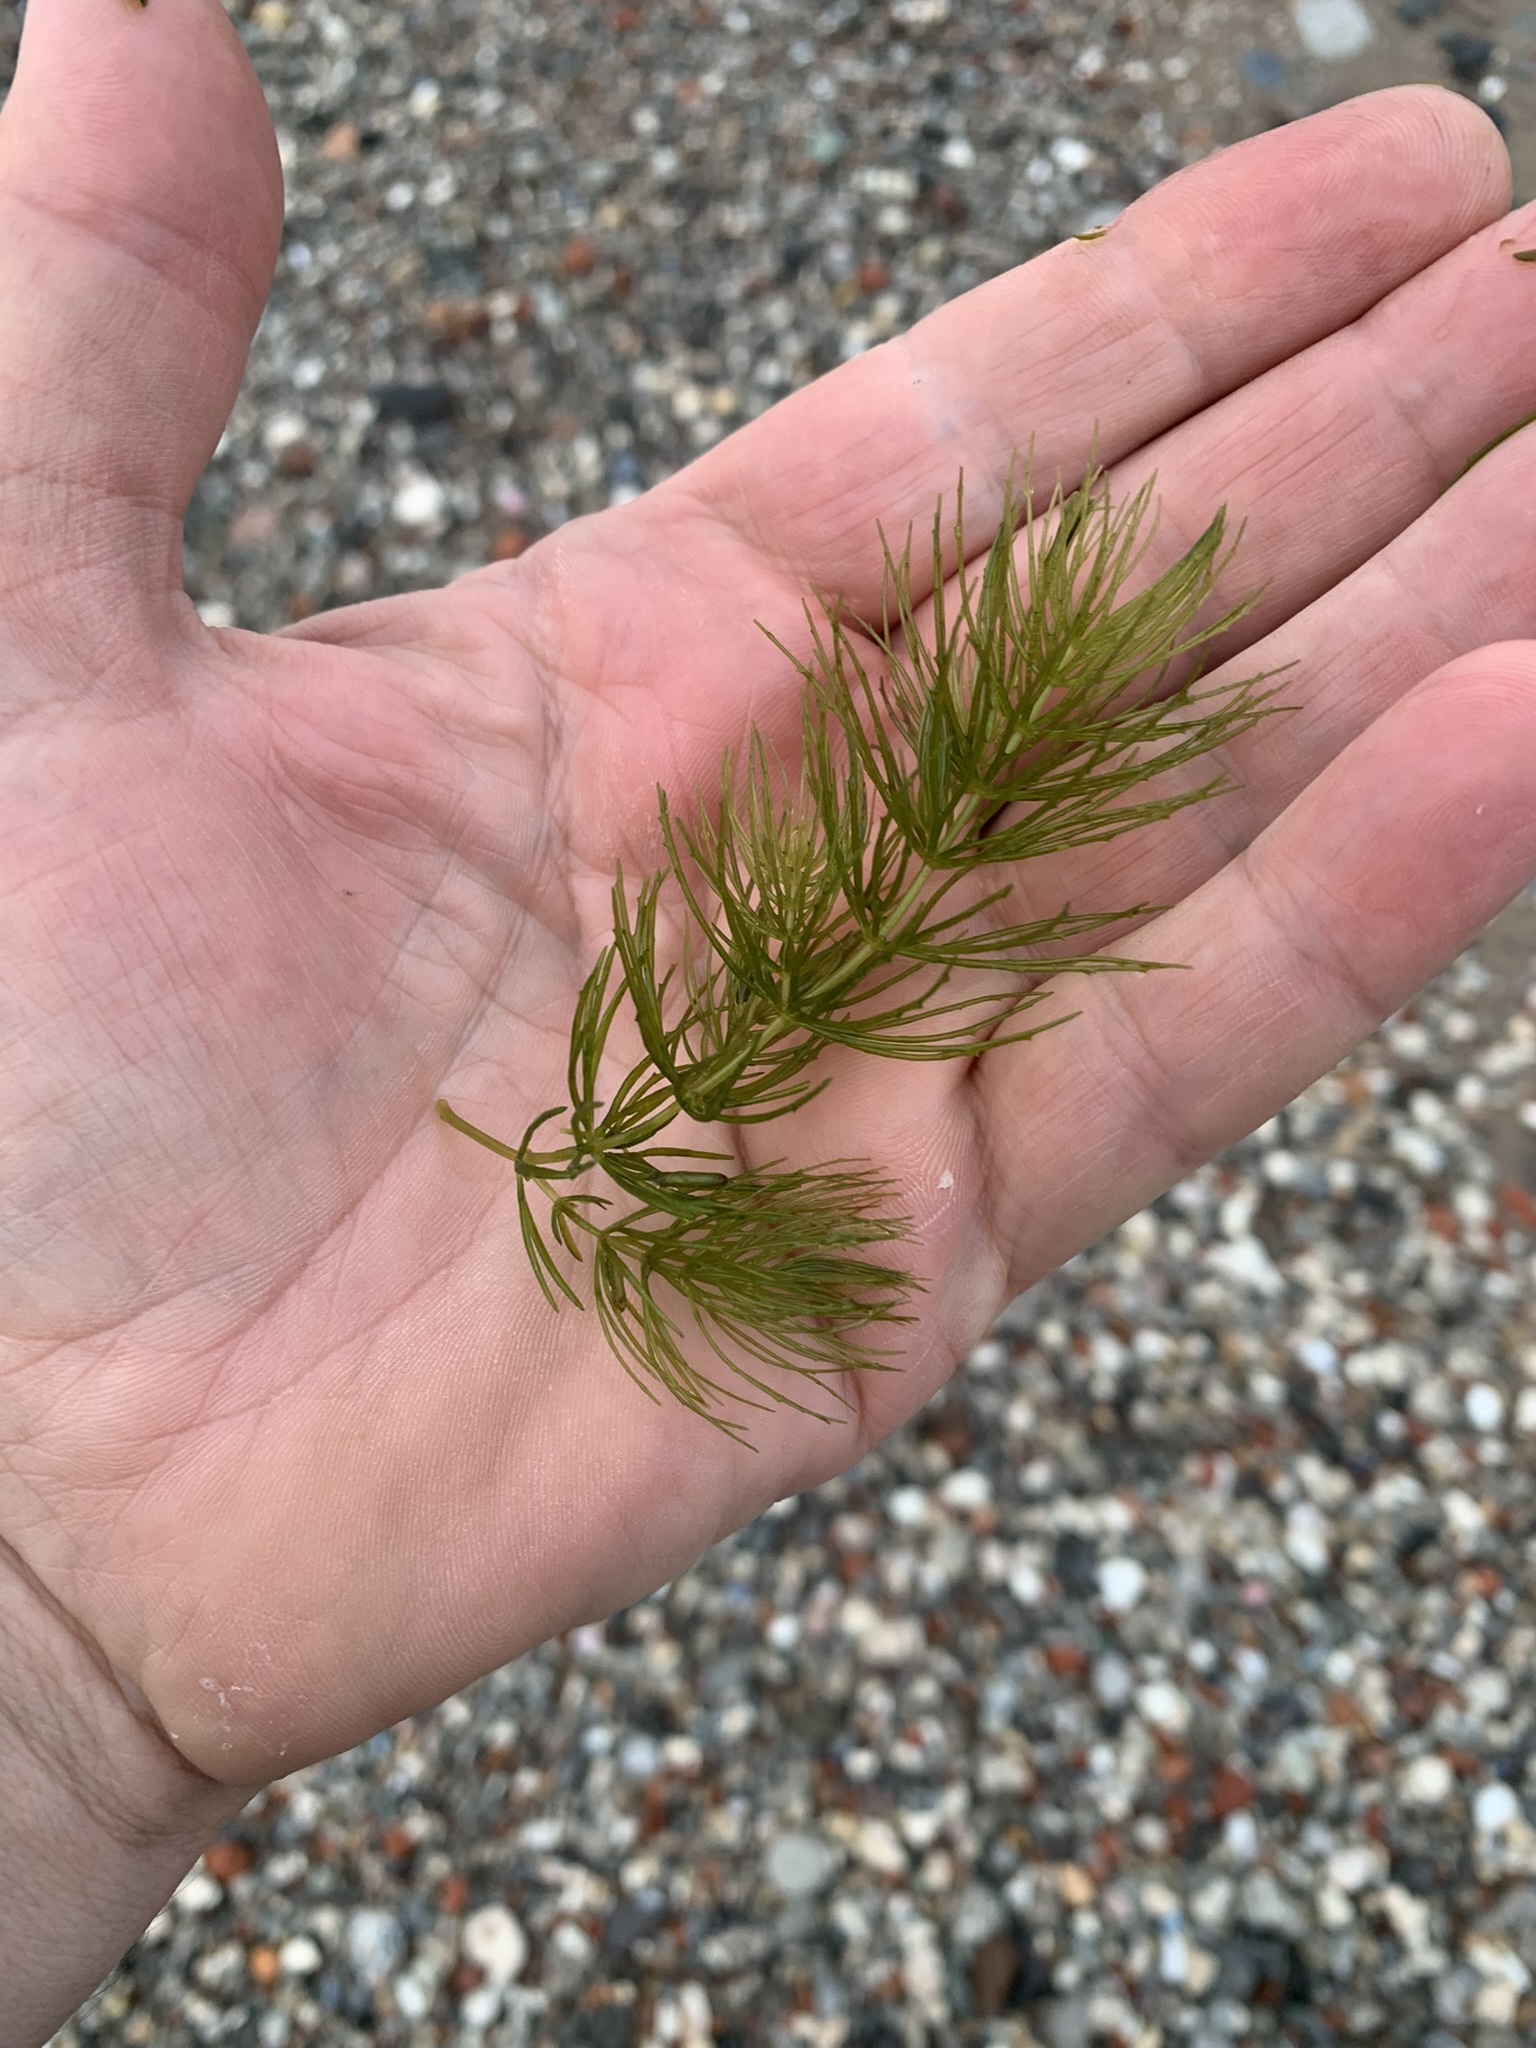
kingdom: Plantae
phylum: Tracheophyta
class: Magnoliopsida
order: Ceratophyllales
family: Ceratophyllaceae
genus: Ceratophyllum
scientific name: Ceratophyllum demersum
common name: Rigid hornwort
